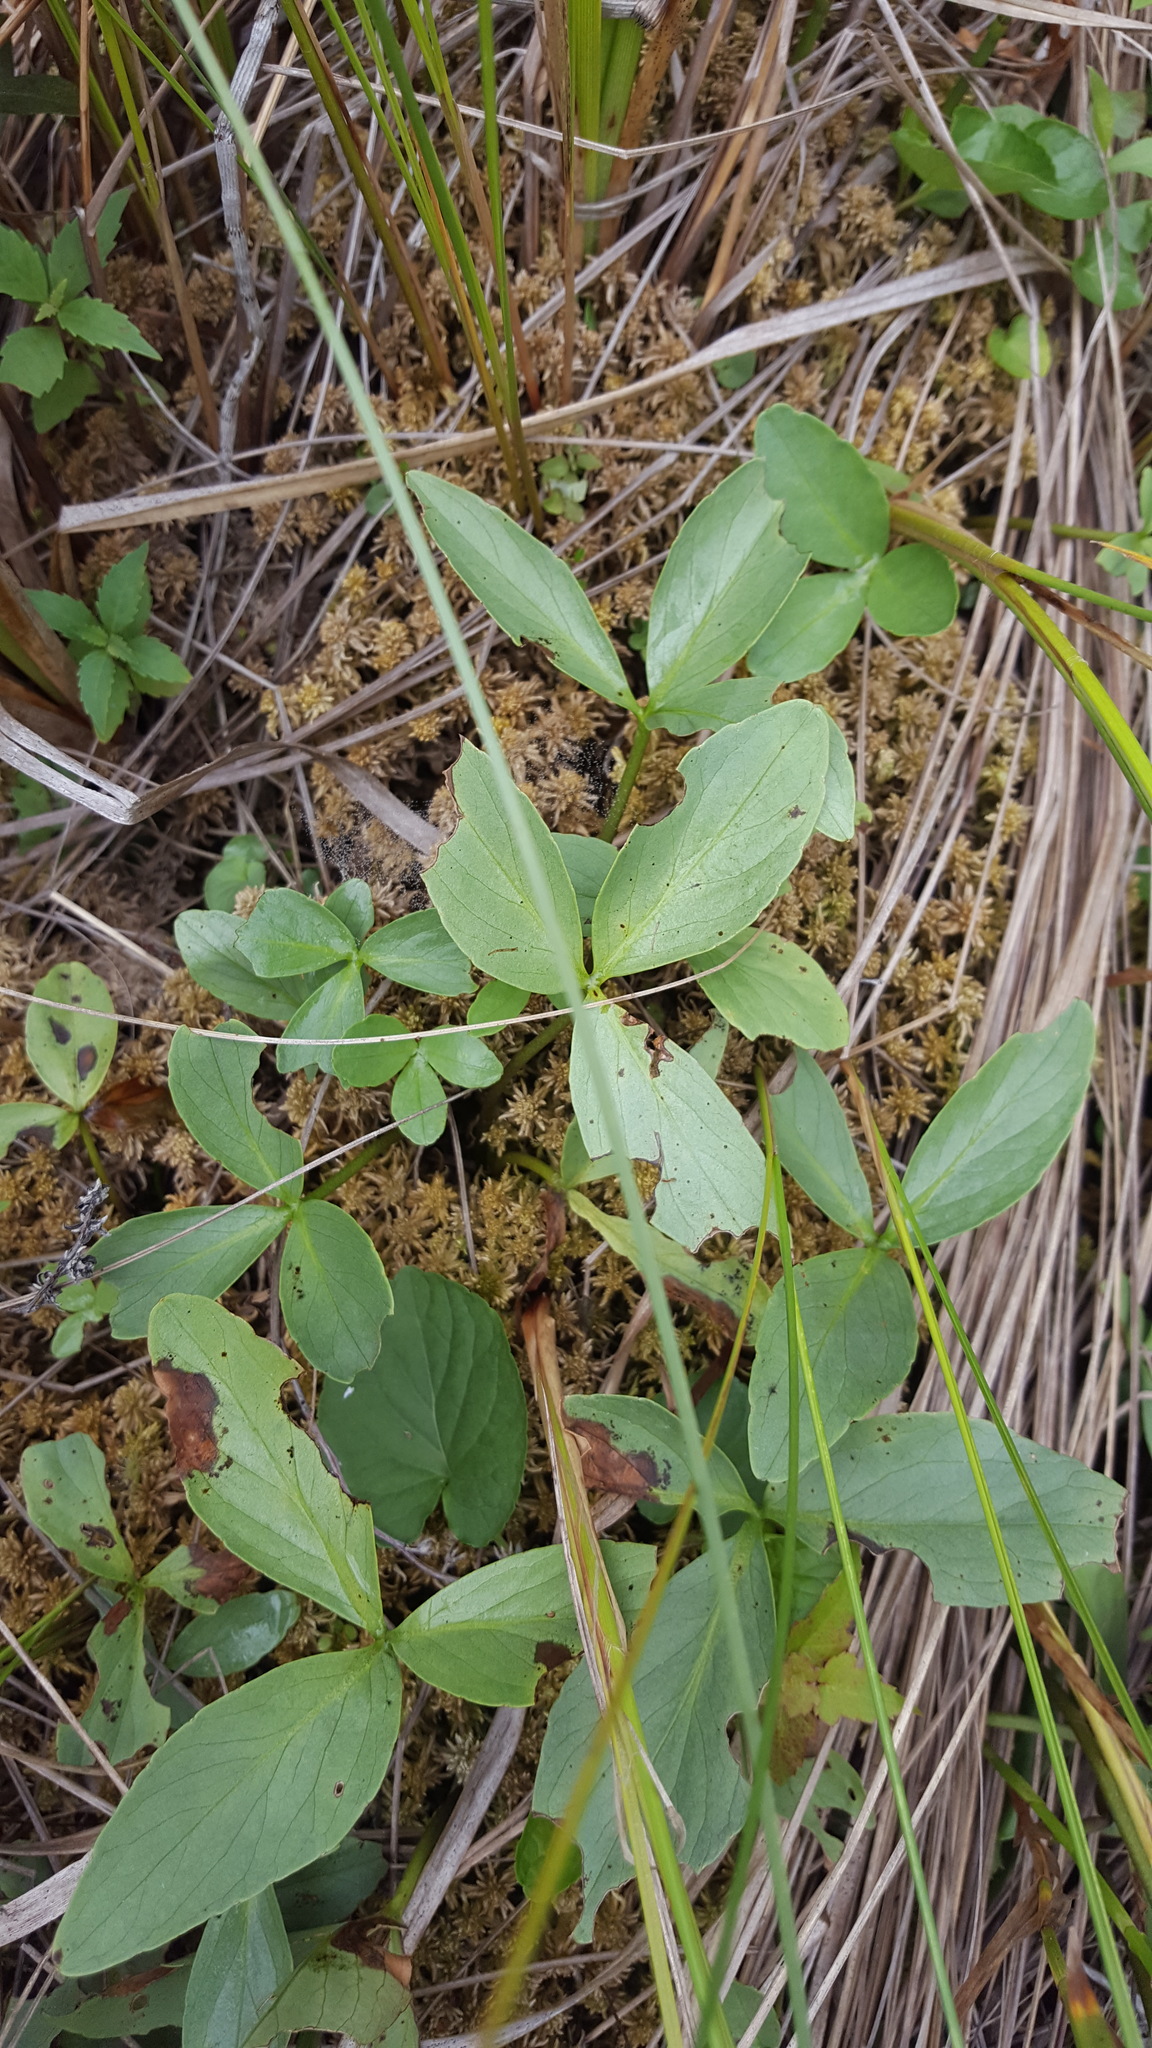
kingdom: Plantae
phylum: Tracheophyta
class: Magnoliopsida
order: Asterales
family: Menyanthaceae
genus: Menyanthes
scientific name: Menyanthes trifoliata
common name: Bogbean
